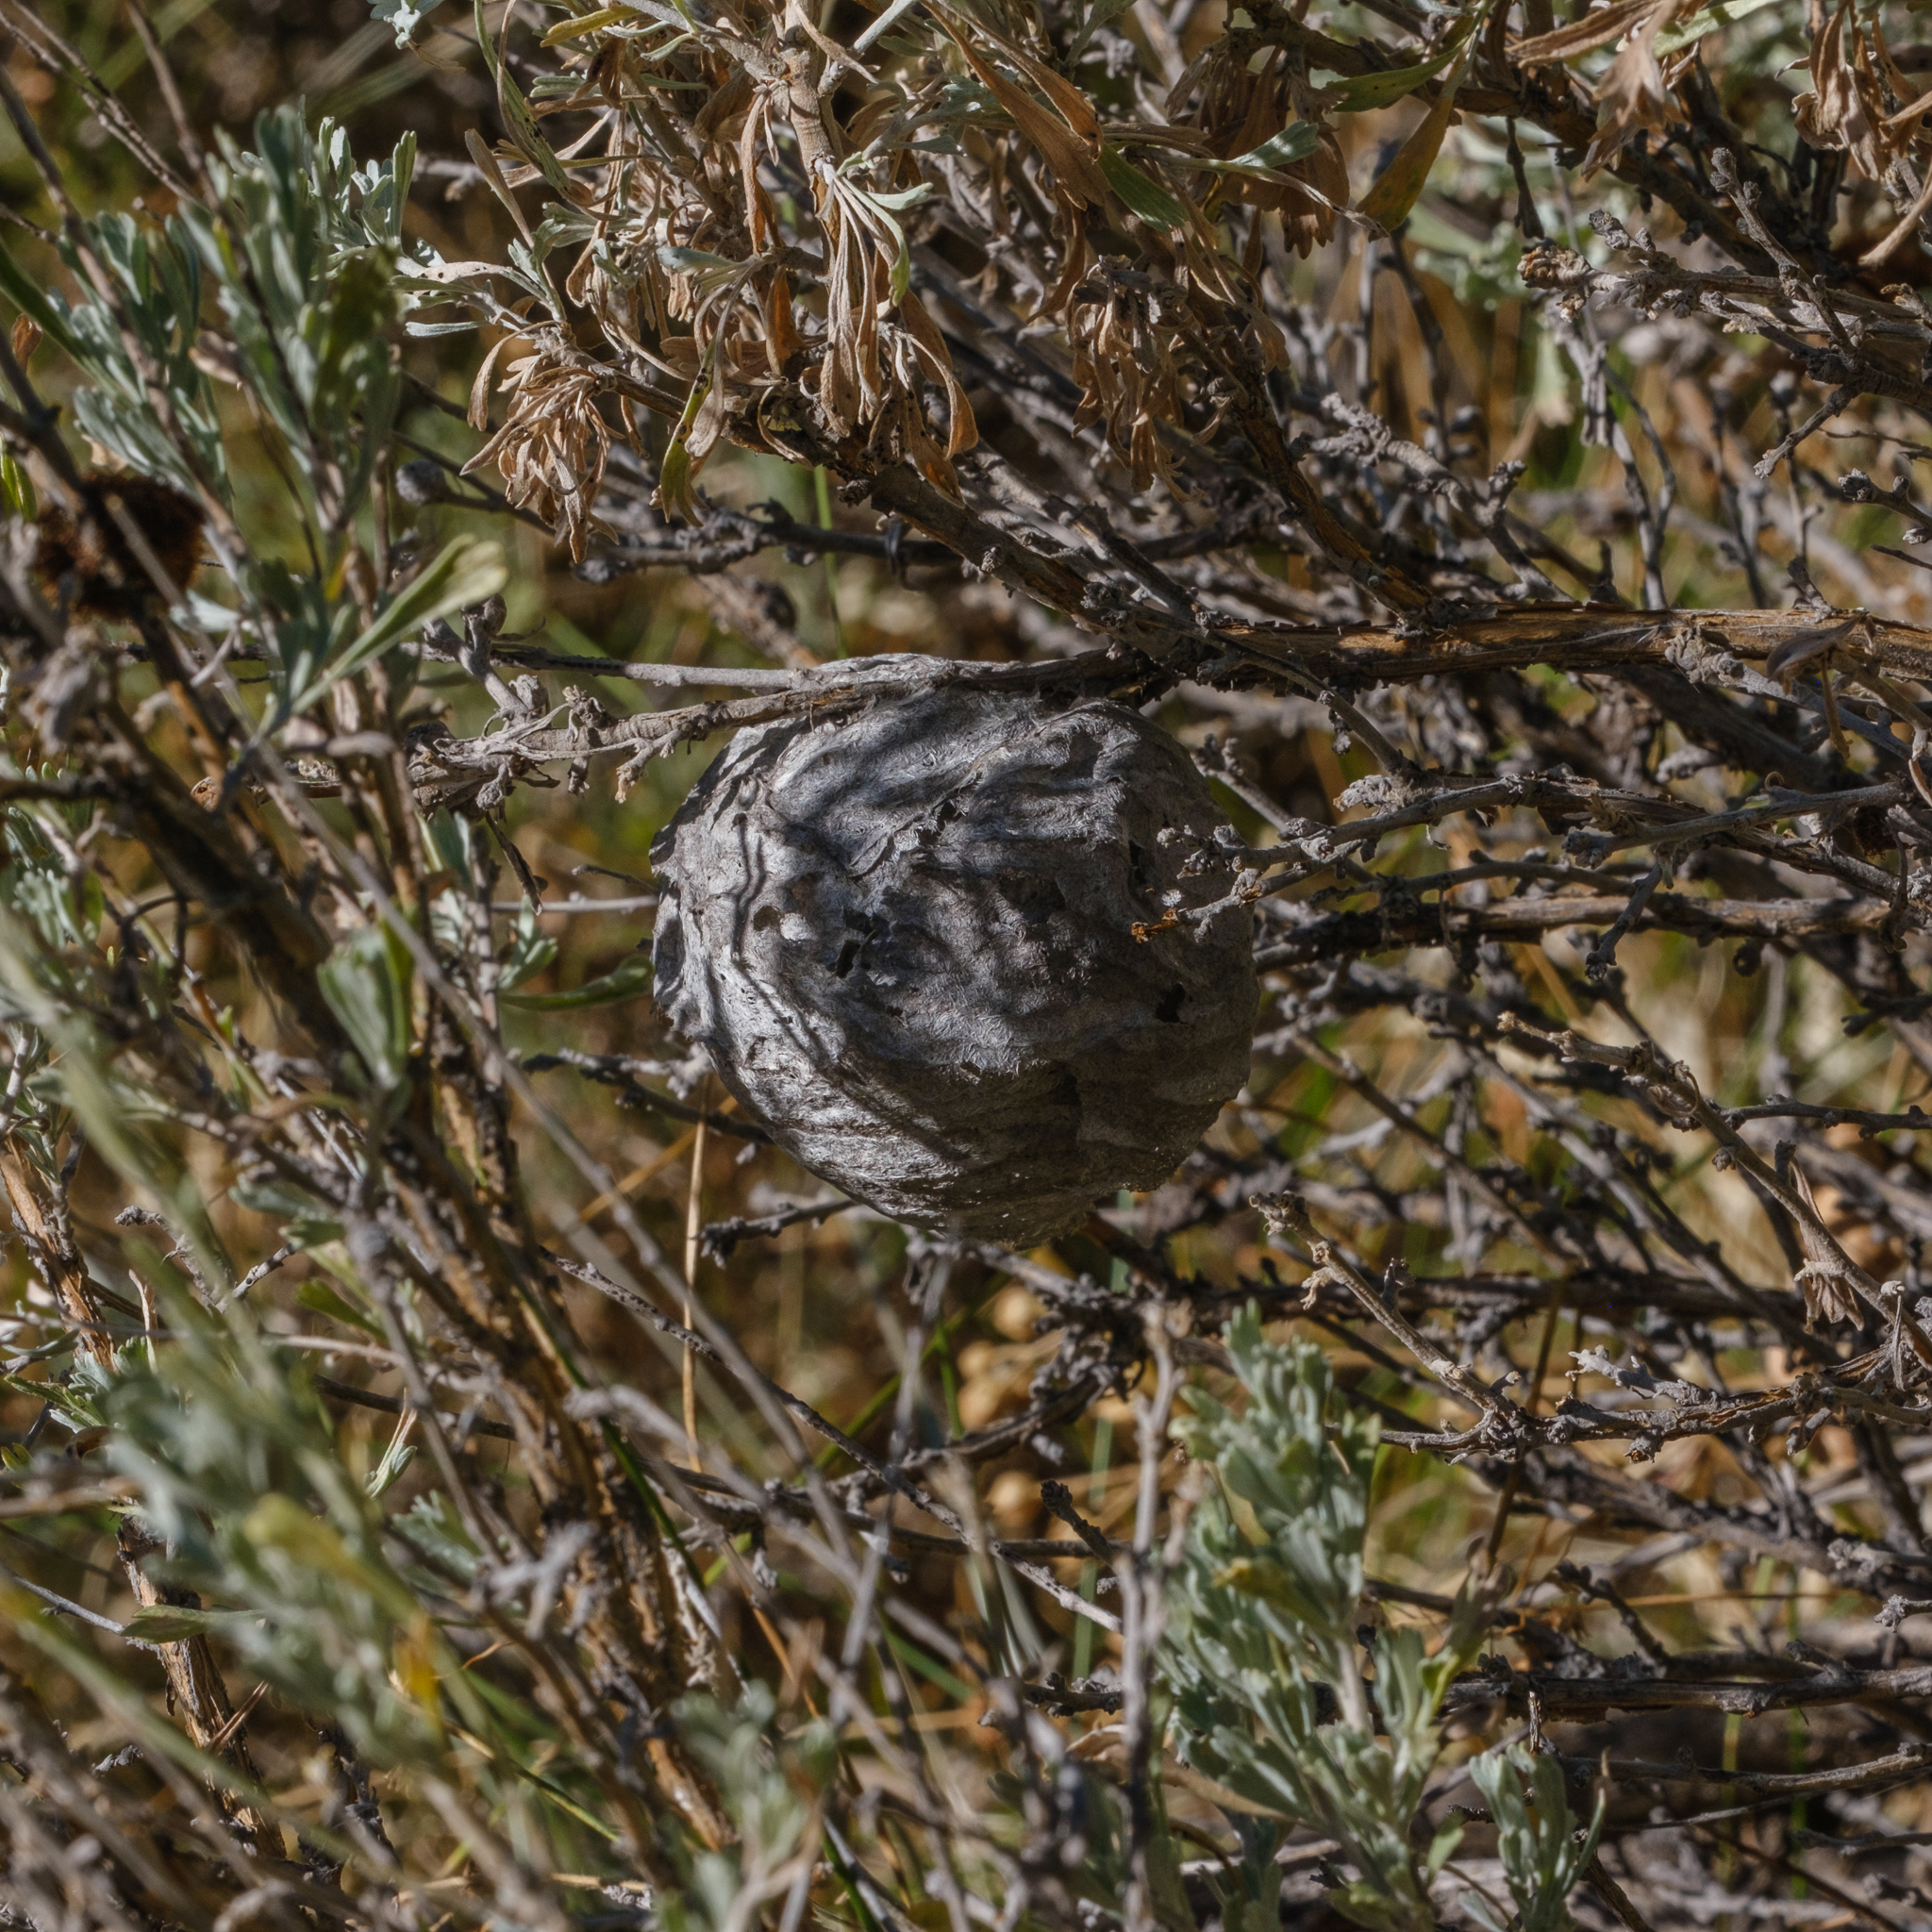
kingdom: Animalia
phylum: Arthropoda
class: Insecta
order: Hymenoptera
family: Vespidae
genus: Dolichovespula
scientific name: Dolichovespula
